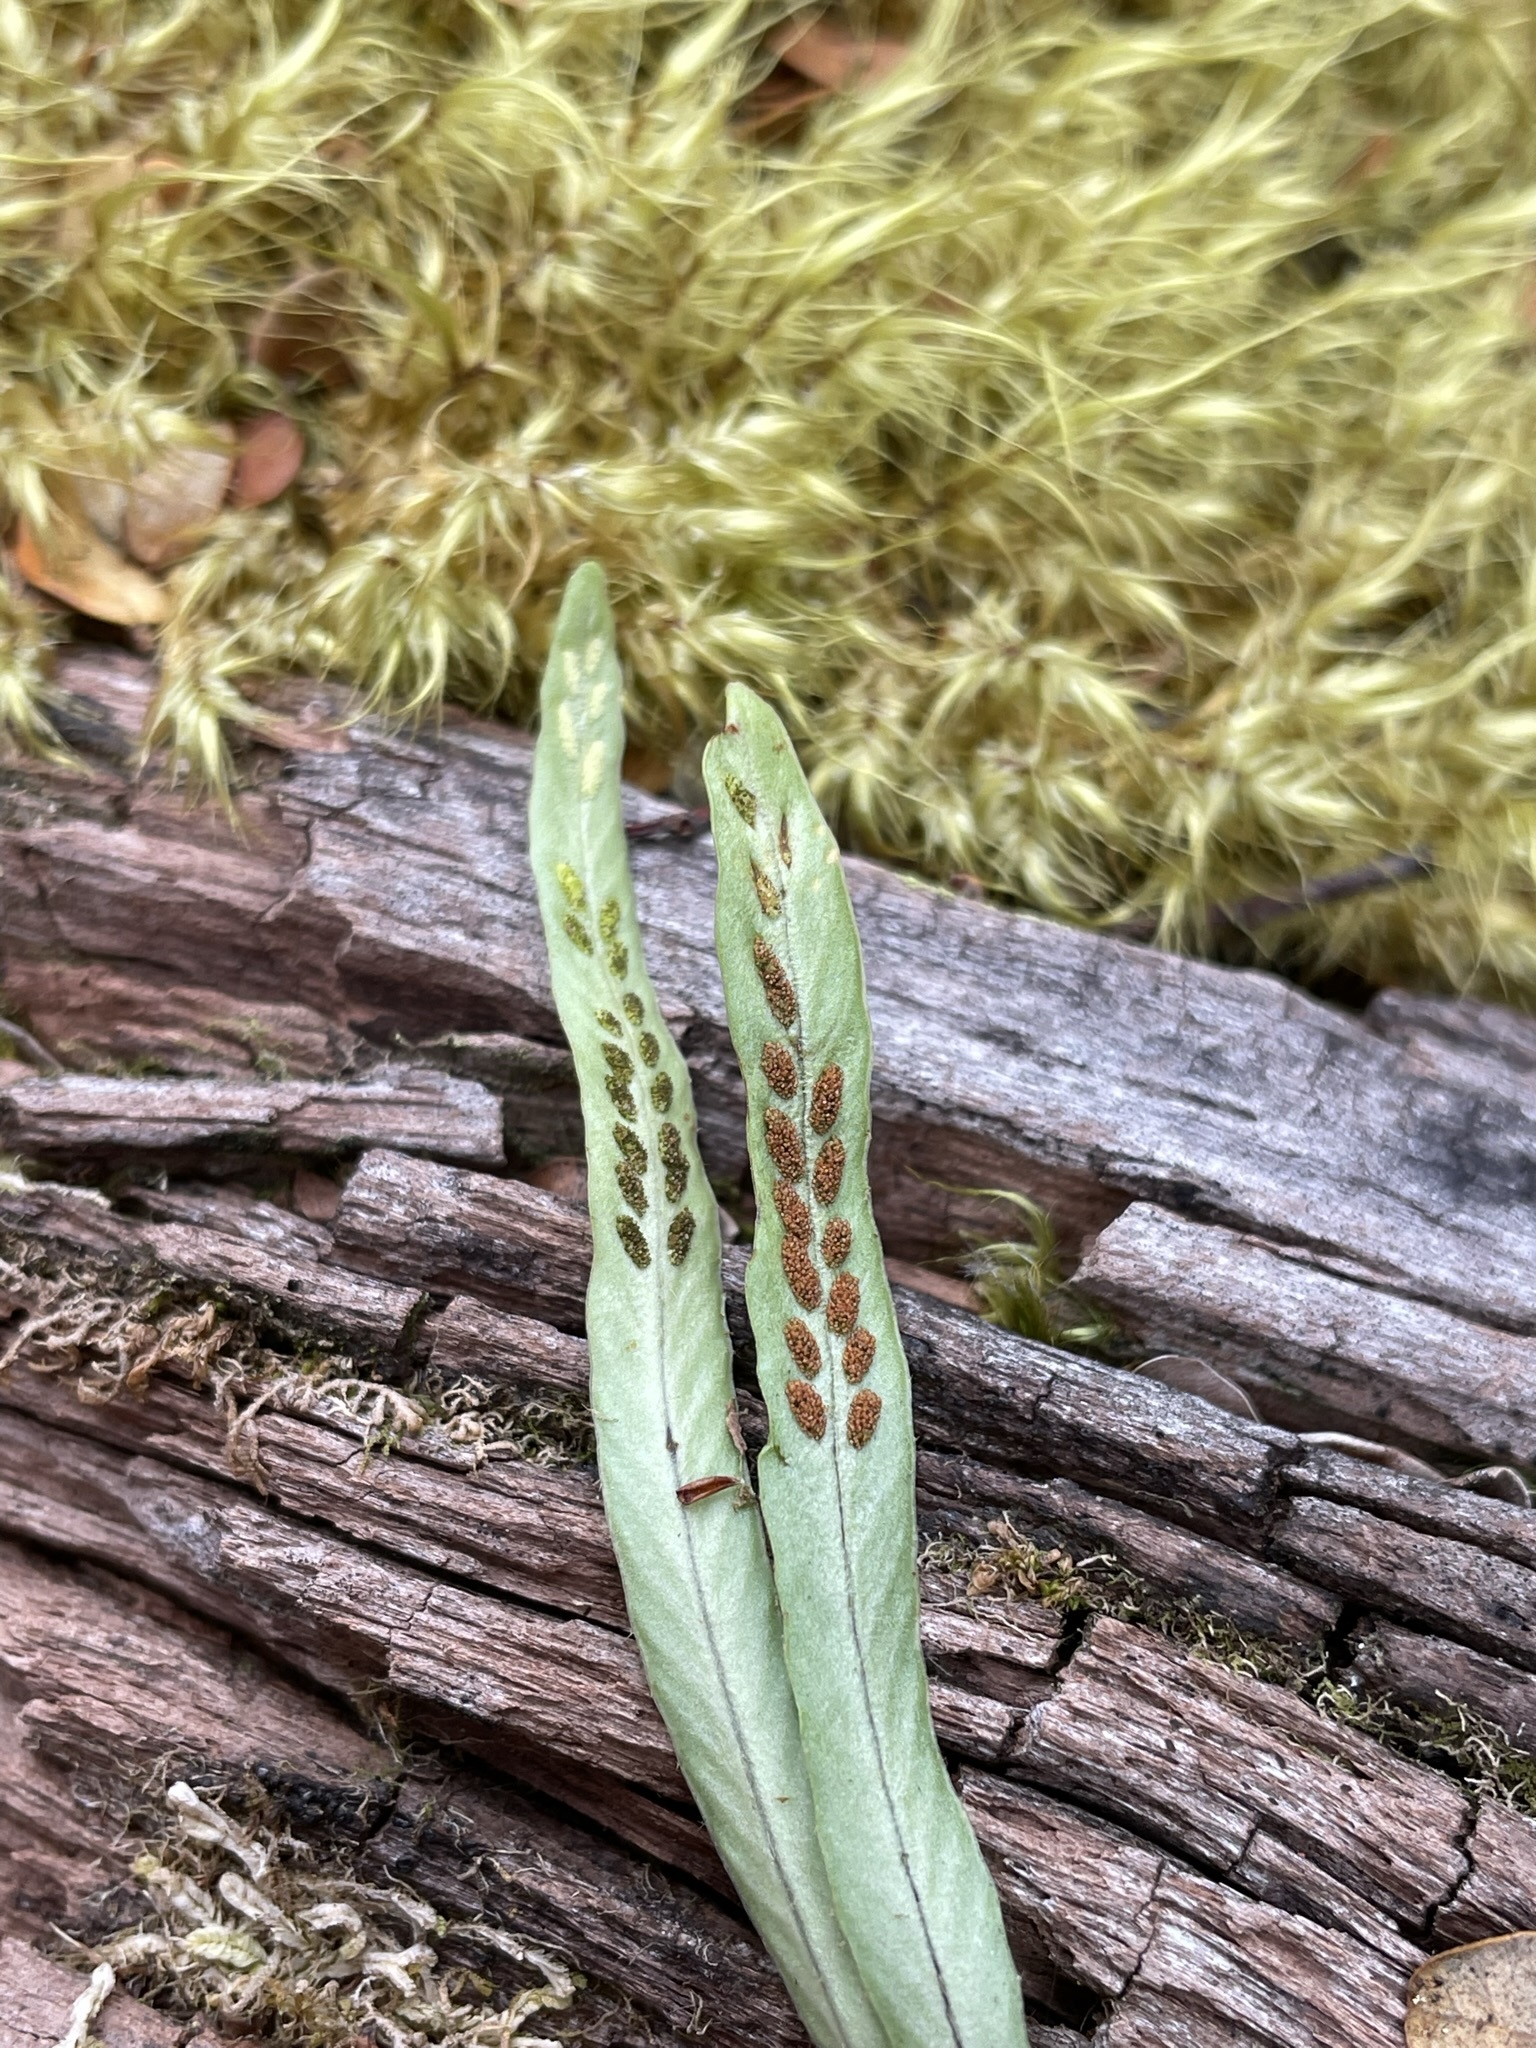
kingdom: Plantae
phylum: Tracheophyta
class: Polypodiopsida
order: Polypodiales
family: Polypodiaceae
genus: Notogrammitis
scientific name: Notogrammitis billardierei
